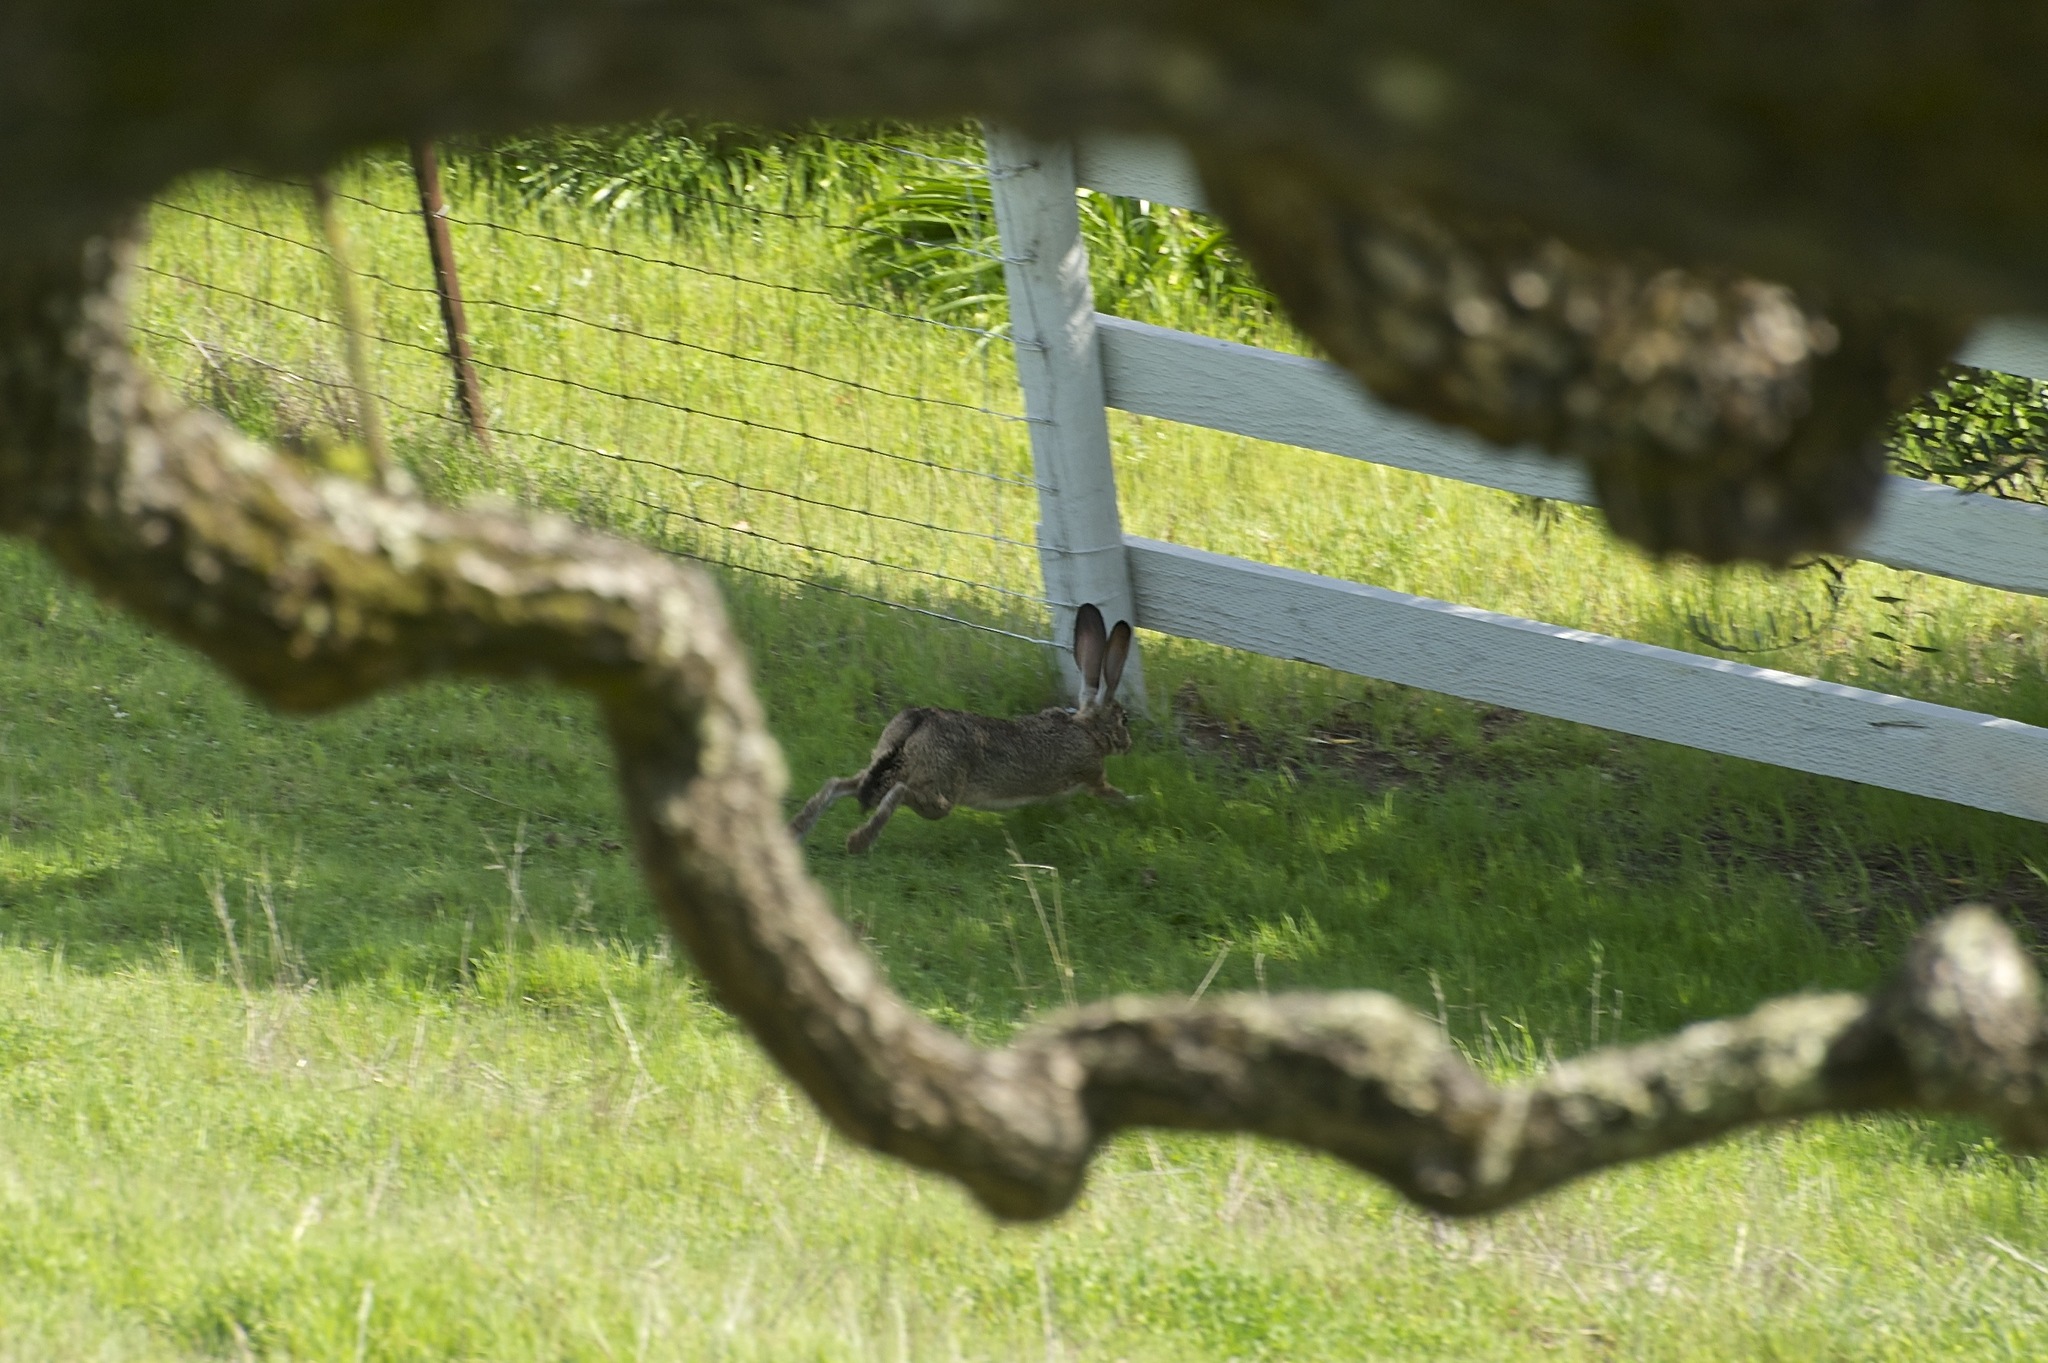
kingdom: Animalia
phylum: Chordata
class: Mammalia
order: Lagomorpha
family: Leporidae
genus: Lepus
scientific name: Lepus californicus
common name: Black-tailed jackrabbit
